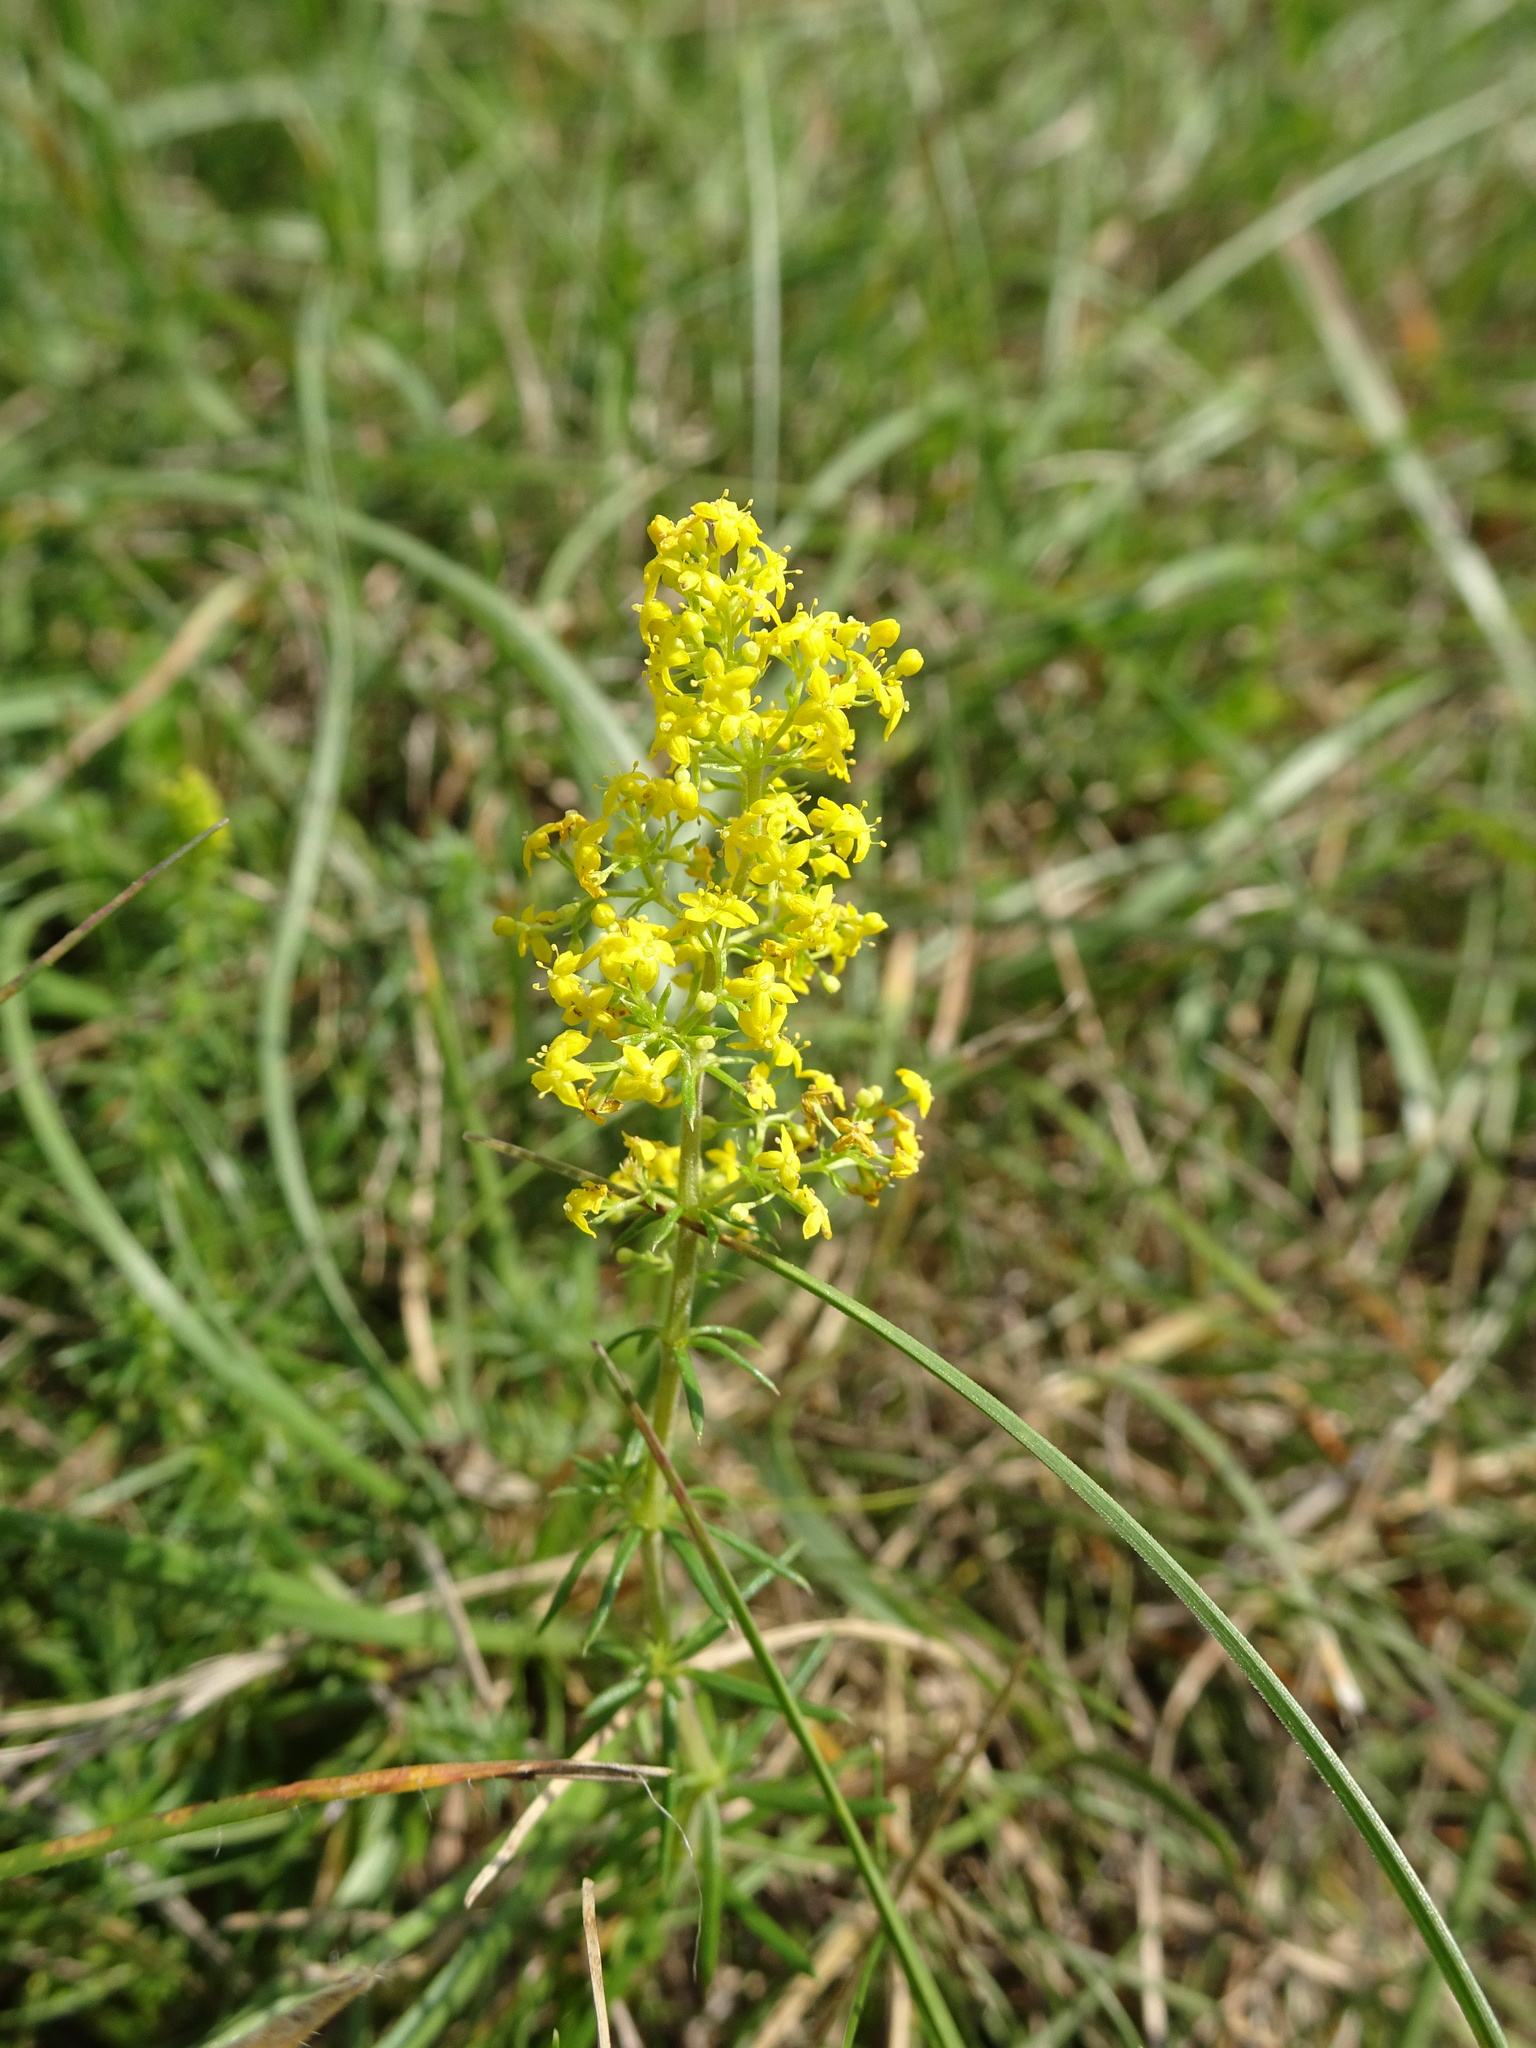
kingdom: Plantae
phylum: Tracheophyta
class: Magnoliopsida
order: Gentianales
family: Rubiaceae
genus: Galium
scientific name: Galium verum
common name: Lady's bedstraw
